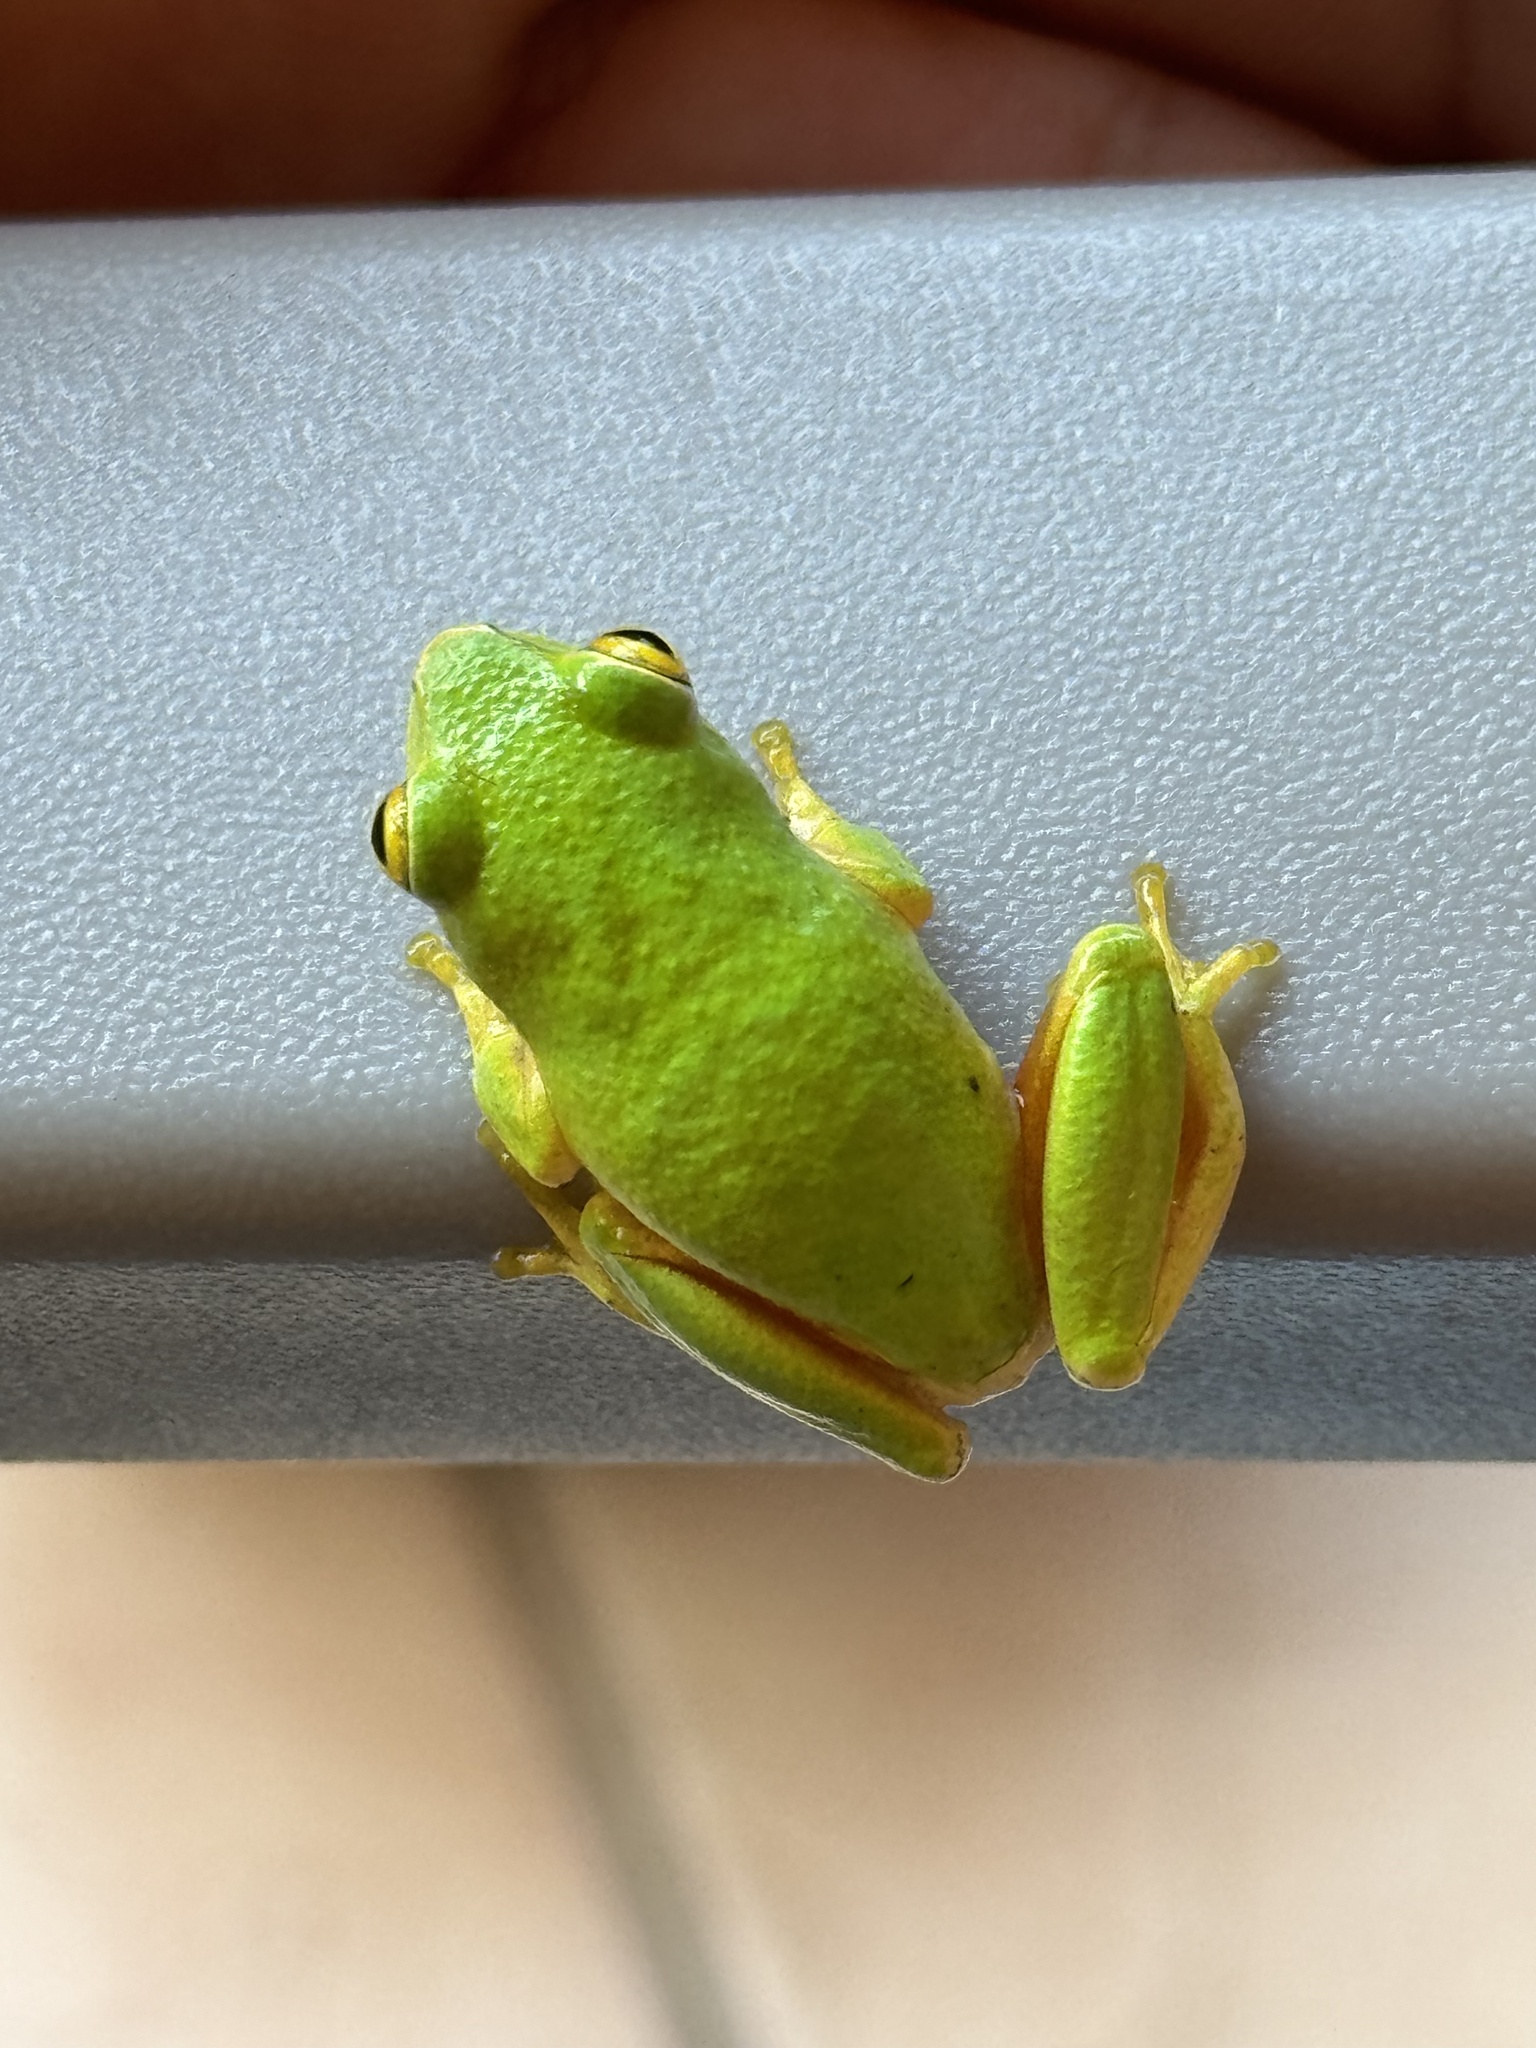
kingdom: Animalia
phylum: Chordata
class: Amphibia
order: Anura
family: Hyperoliidae
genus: Hyperolius
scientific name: Hyperolius tuberilinguis
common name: Tinker reed frog
